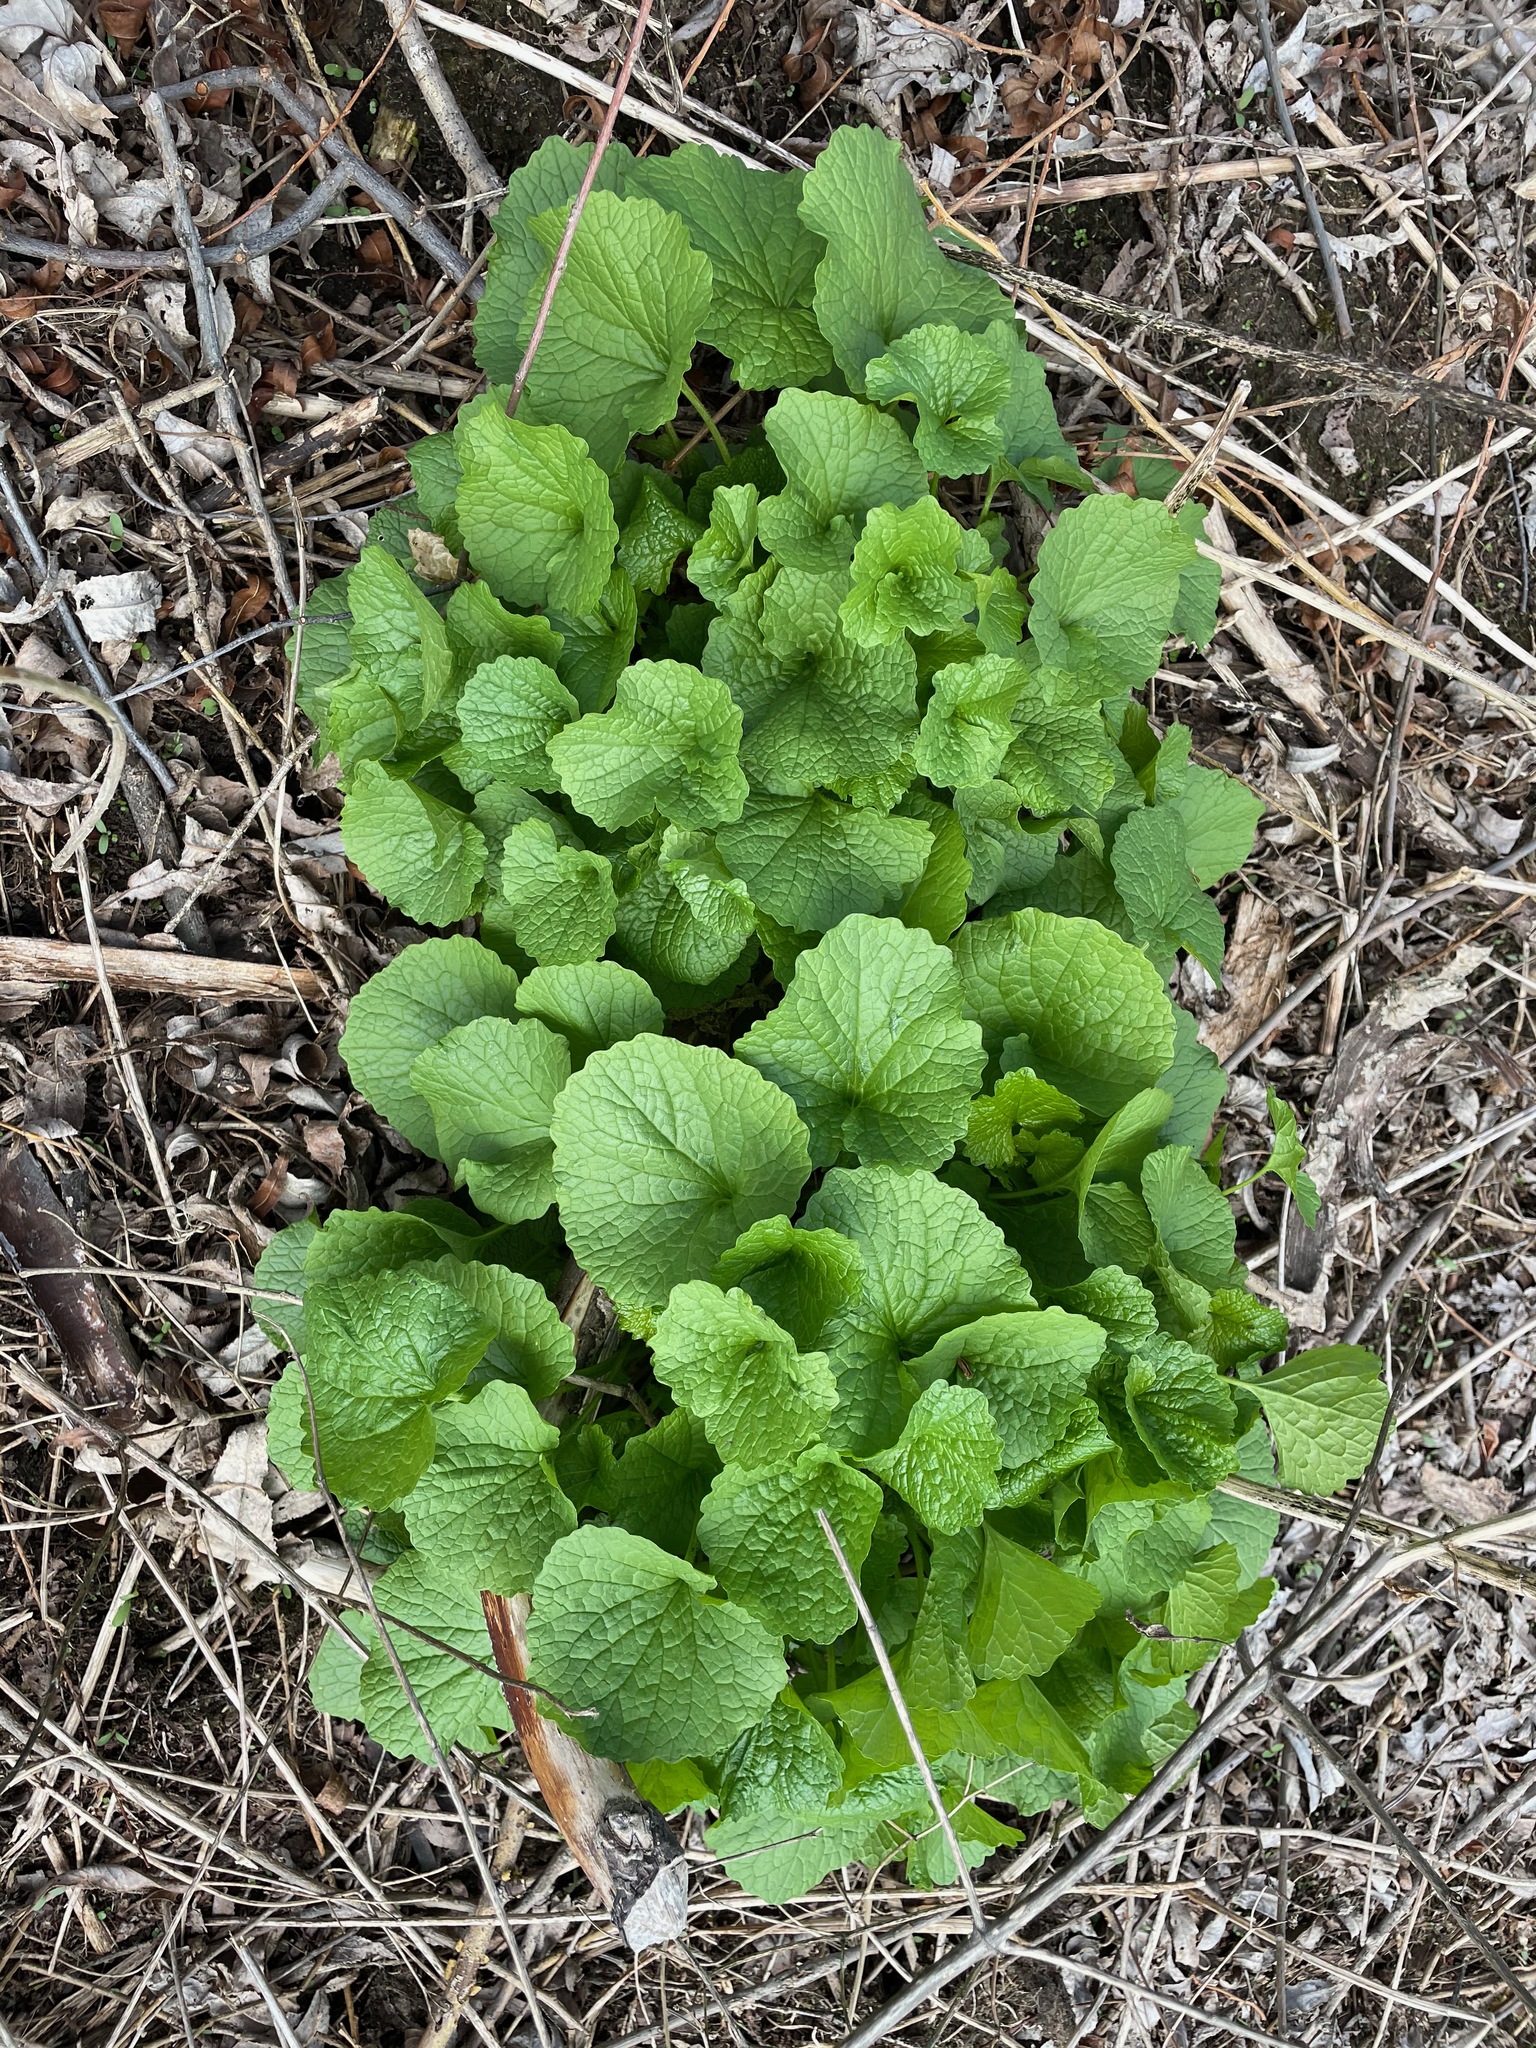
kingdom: Plantae
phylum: Tracheophyta
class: Magnoliopsida
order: Brassicales
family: Brassicaceae
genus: Alliaria
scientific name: Alliaria petiolata
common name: Garlic mustard
